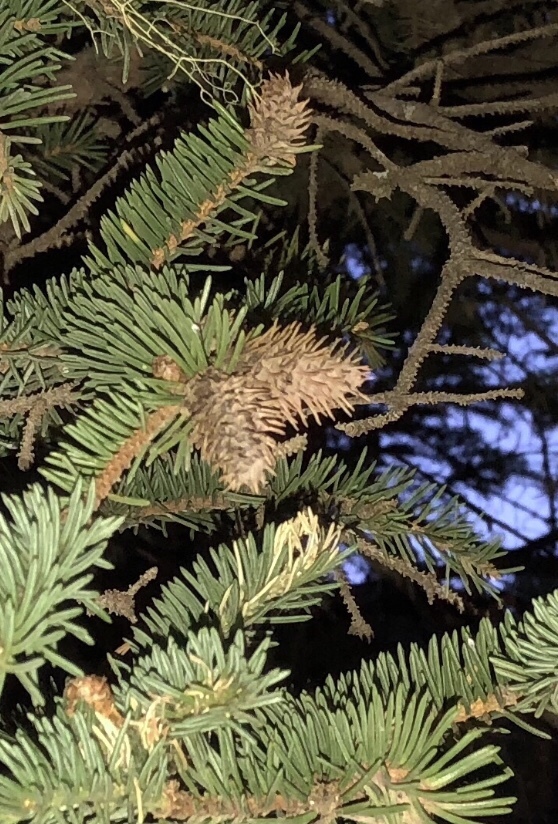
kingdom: Animalia
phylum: Arthropoda
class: Insecta
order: Hemiptera
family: Adelgidae
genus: Adelges
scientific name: Adelges cooleyi
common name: Cooley spruce gall adelgid
